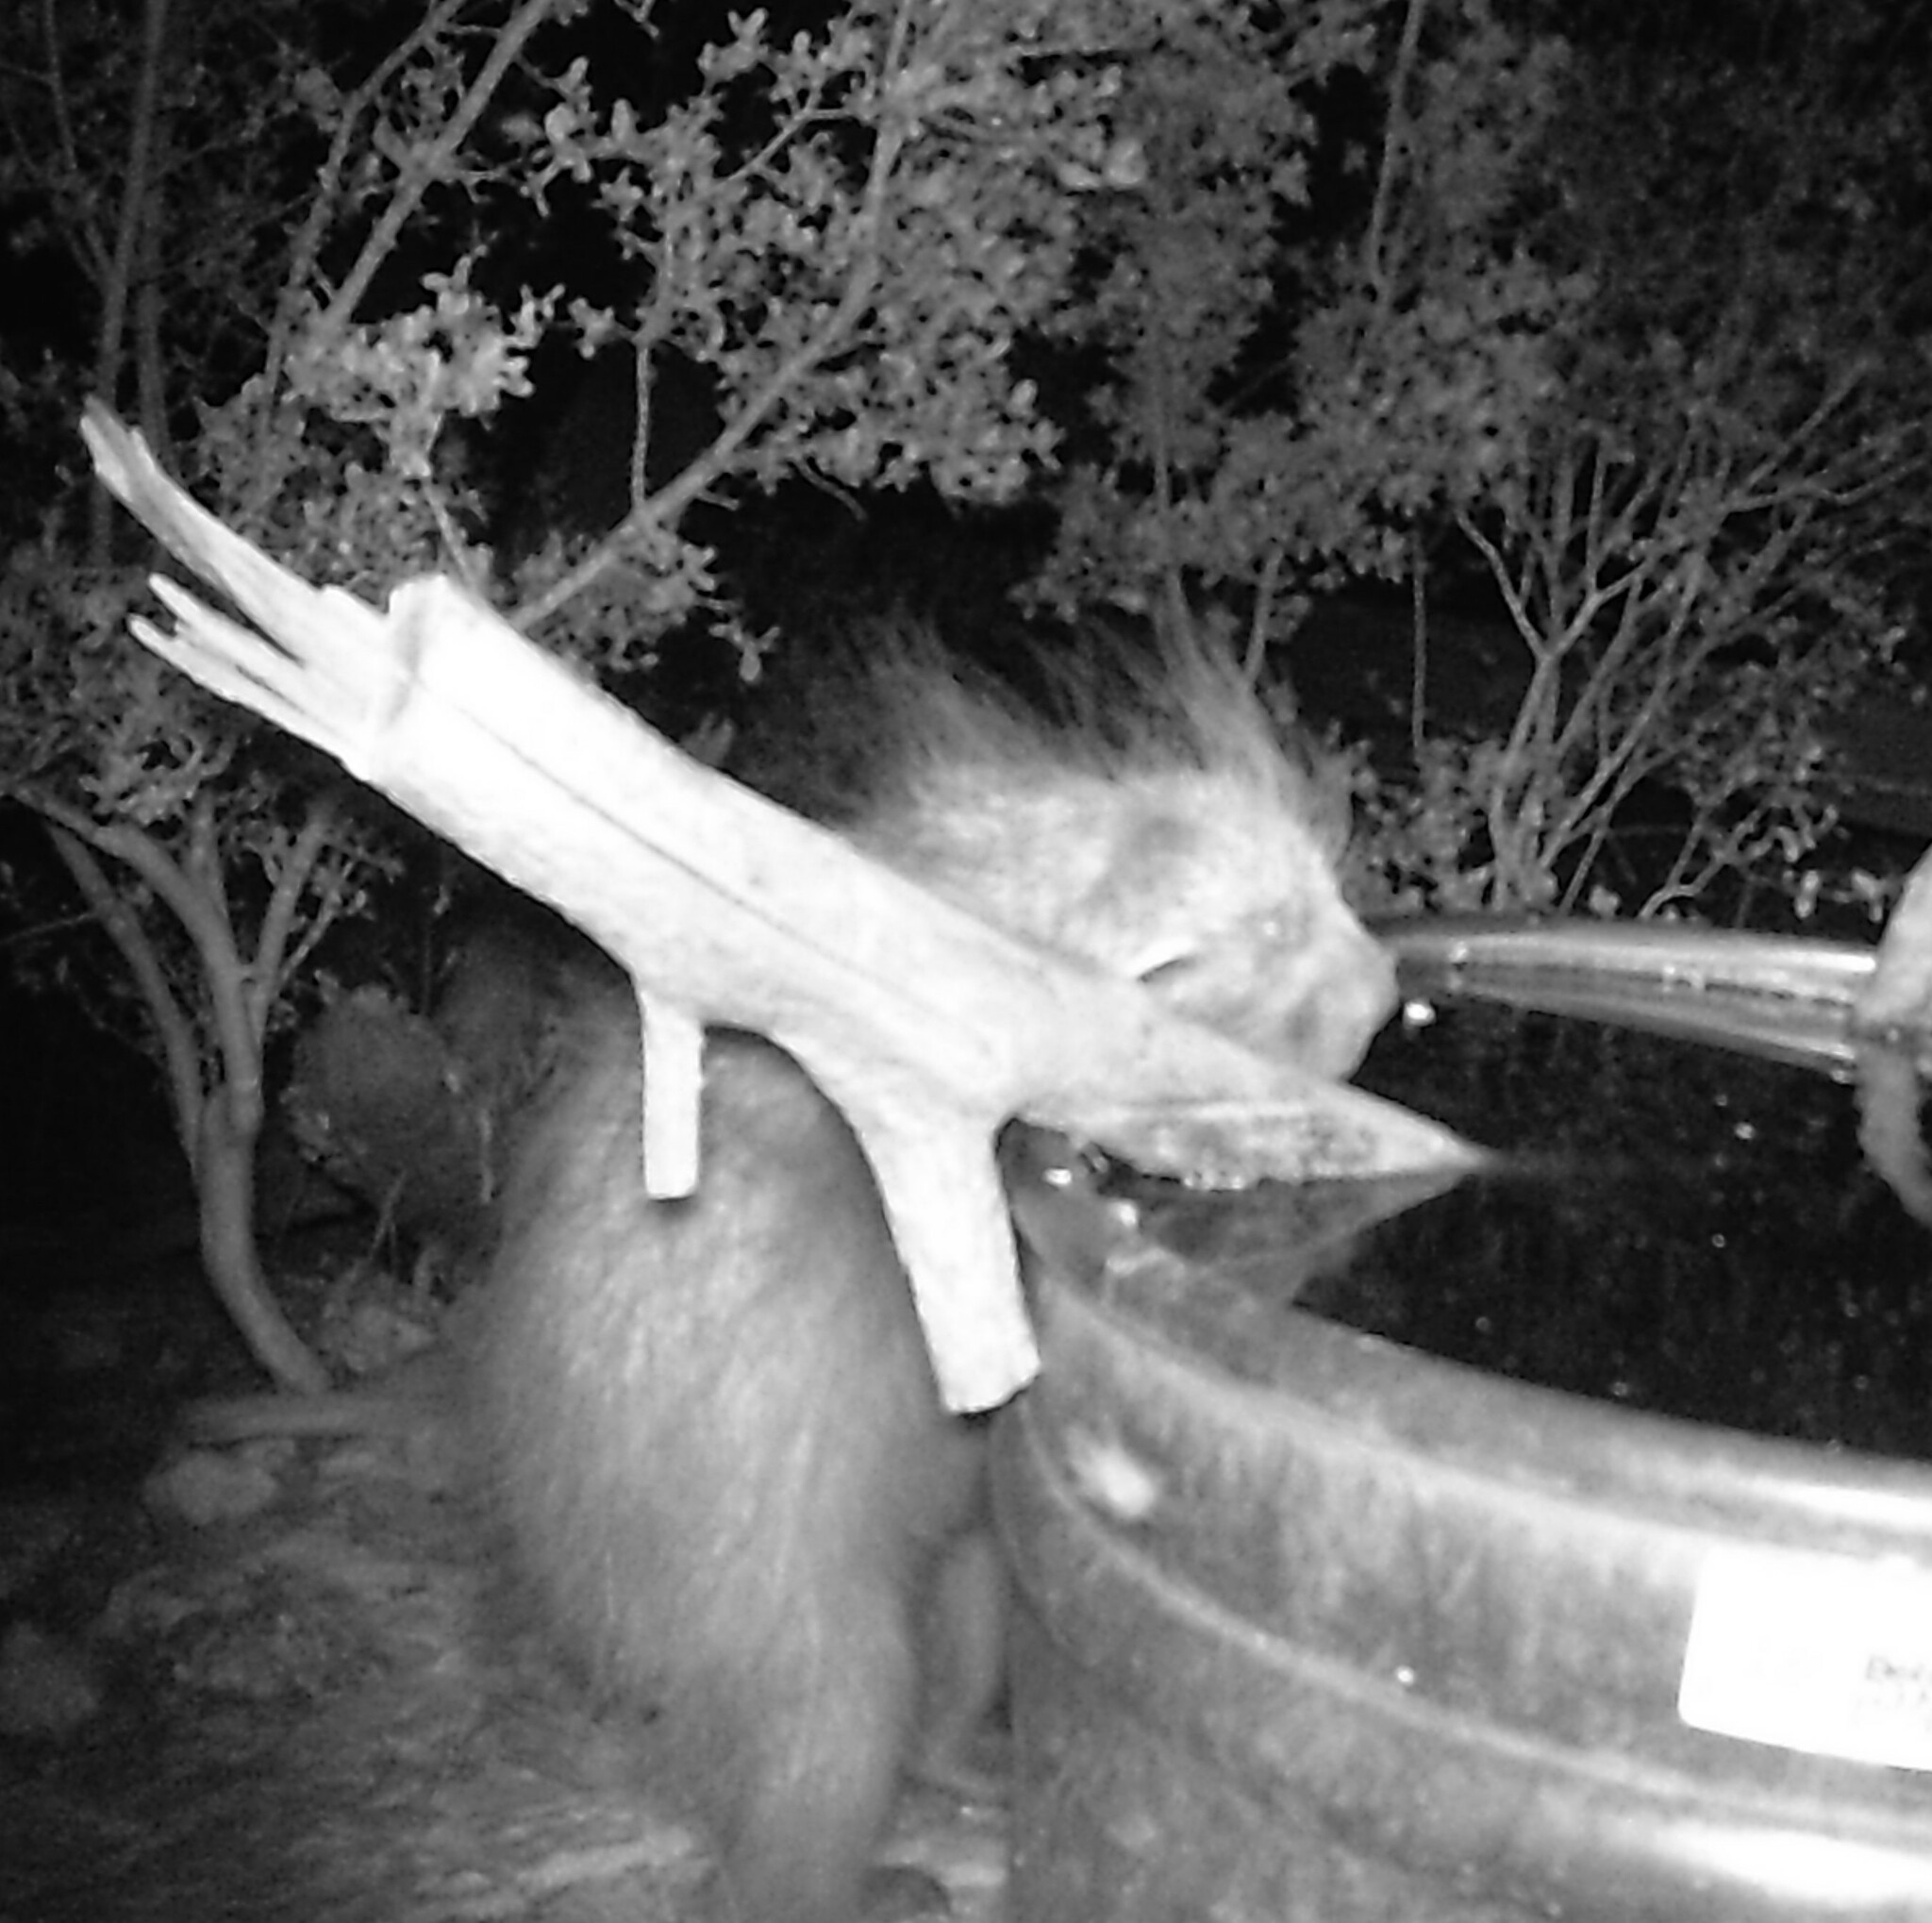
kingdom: Animalia
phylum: Chordata
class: Mammalia
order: Rodentia
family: Erethizontidae
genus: Erethizon
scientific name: Erethizon dorsatus
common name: North american porcupine
